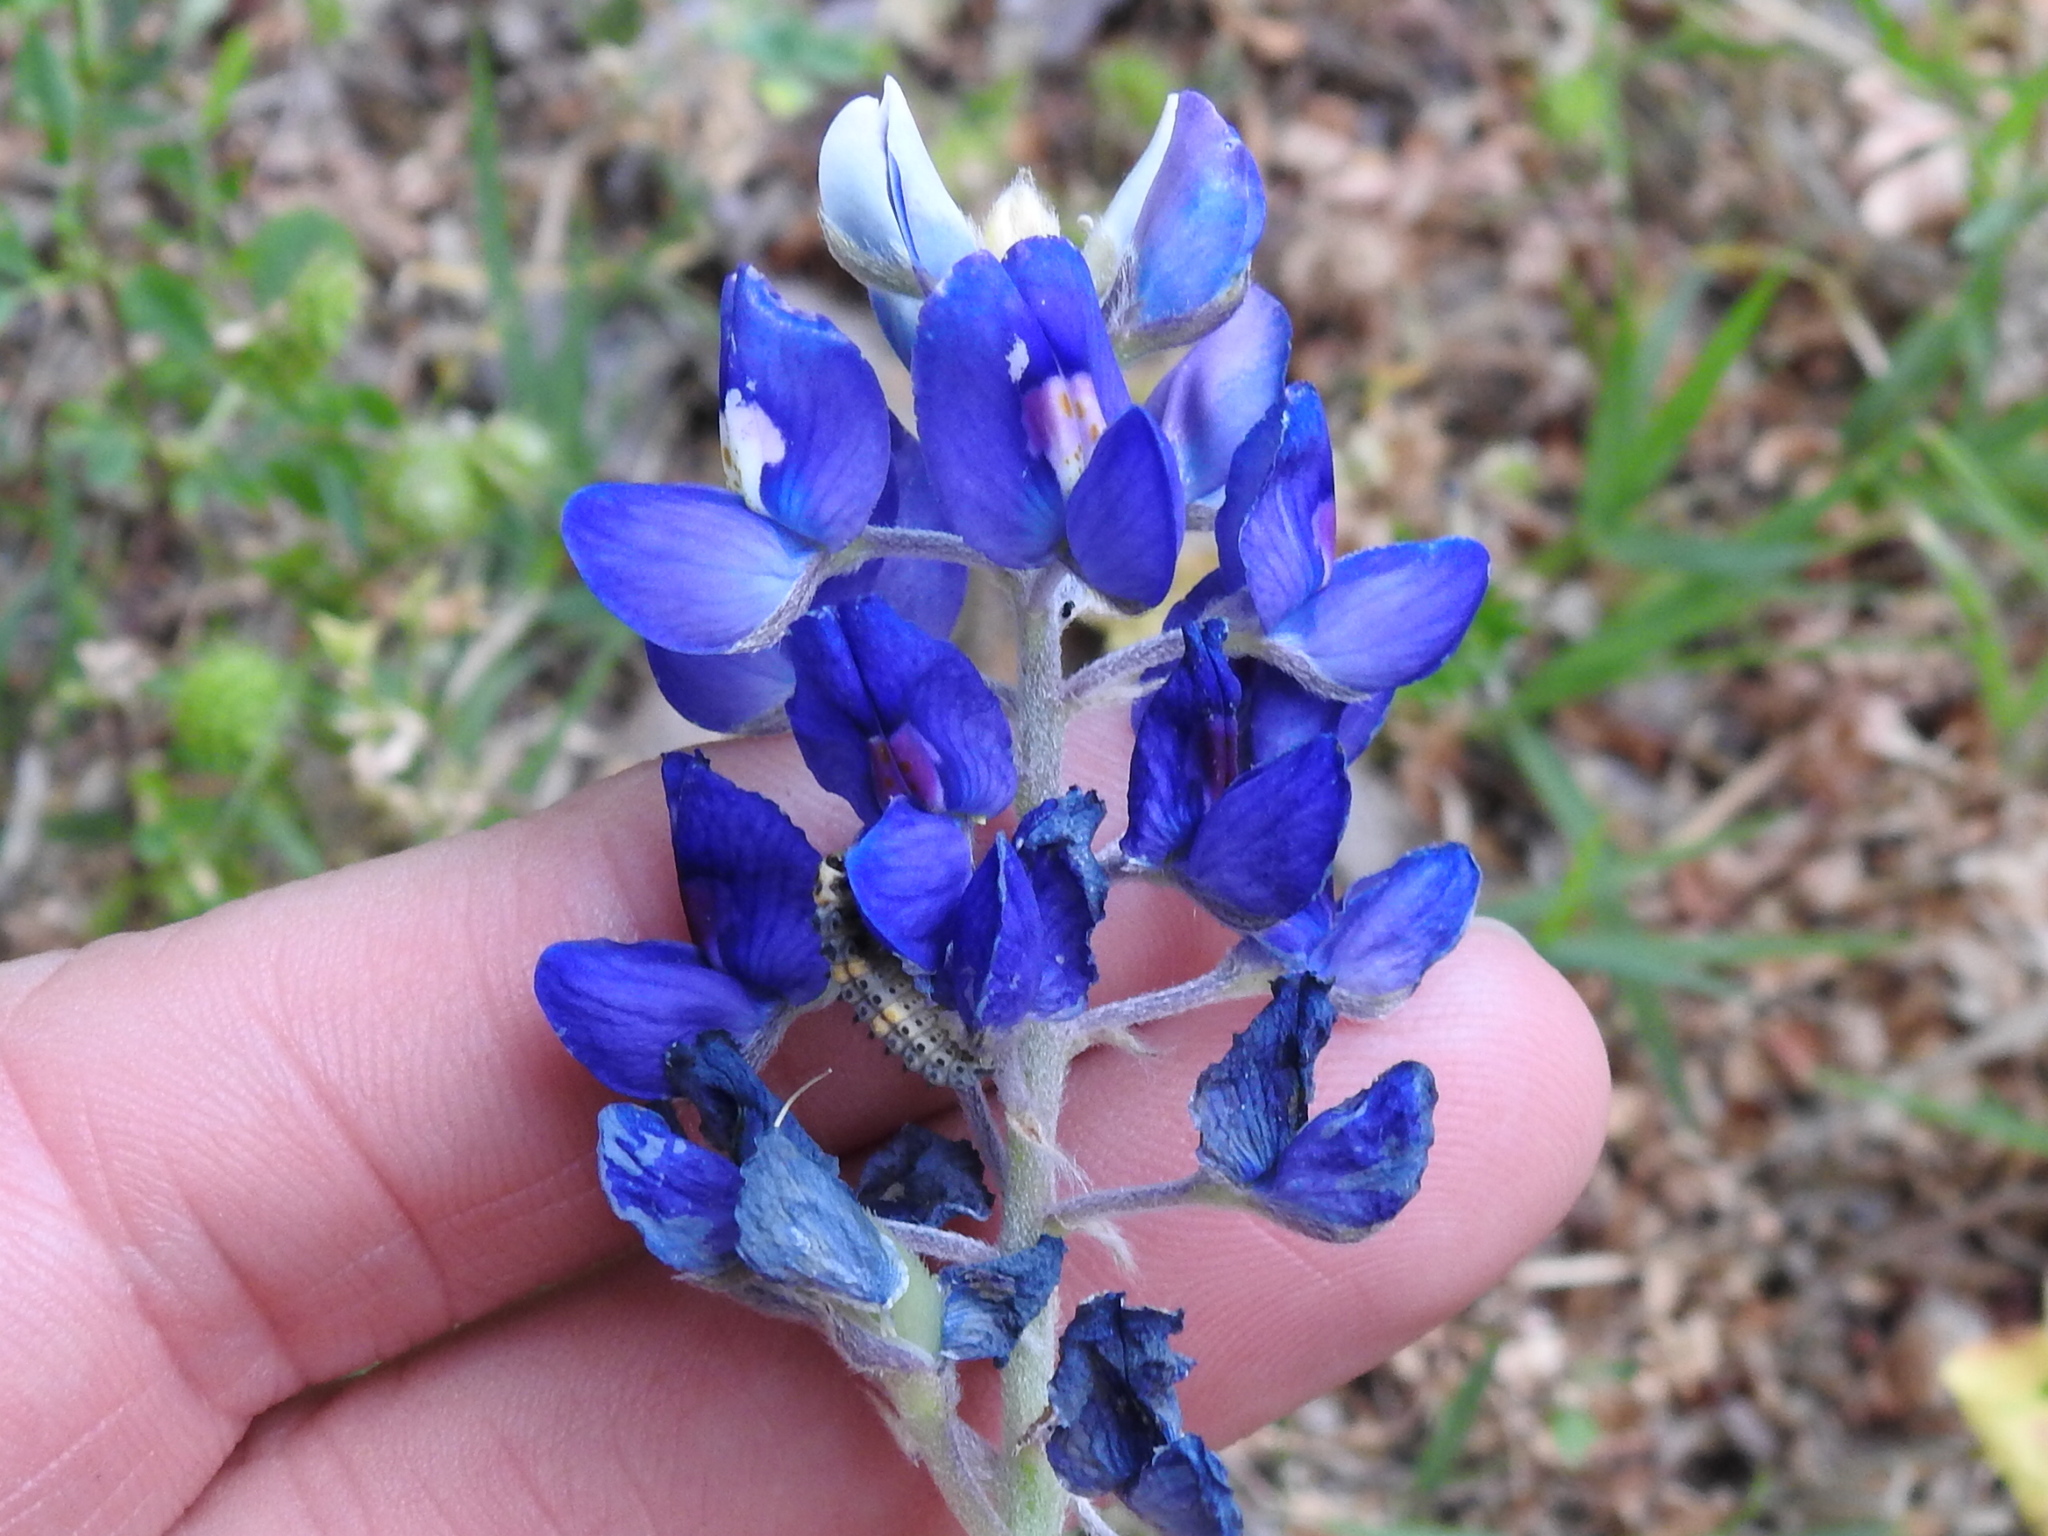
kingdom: Plantae
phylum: Tracheophyta
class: Magnoliopsida
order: Fabales
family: Fabaceae
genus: Lupinus
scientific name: Lupinus texensis
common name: Texas bluebonnet
